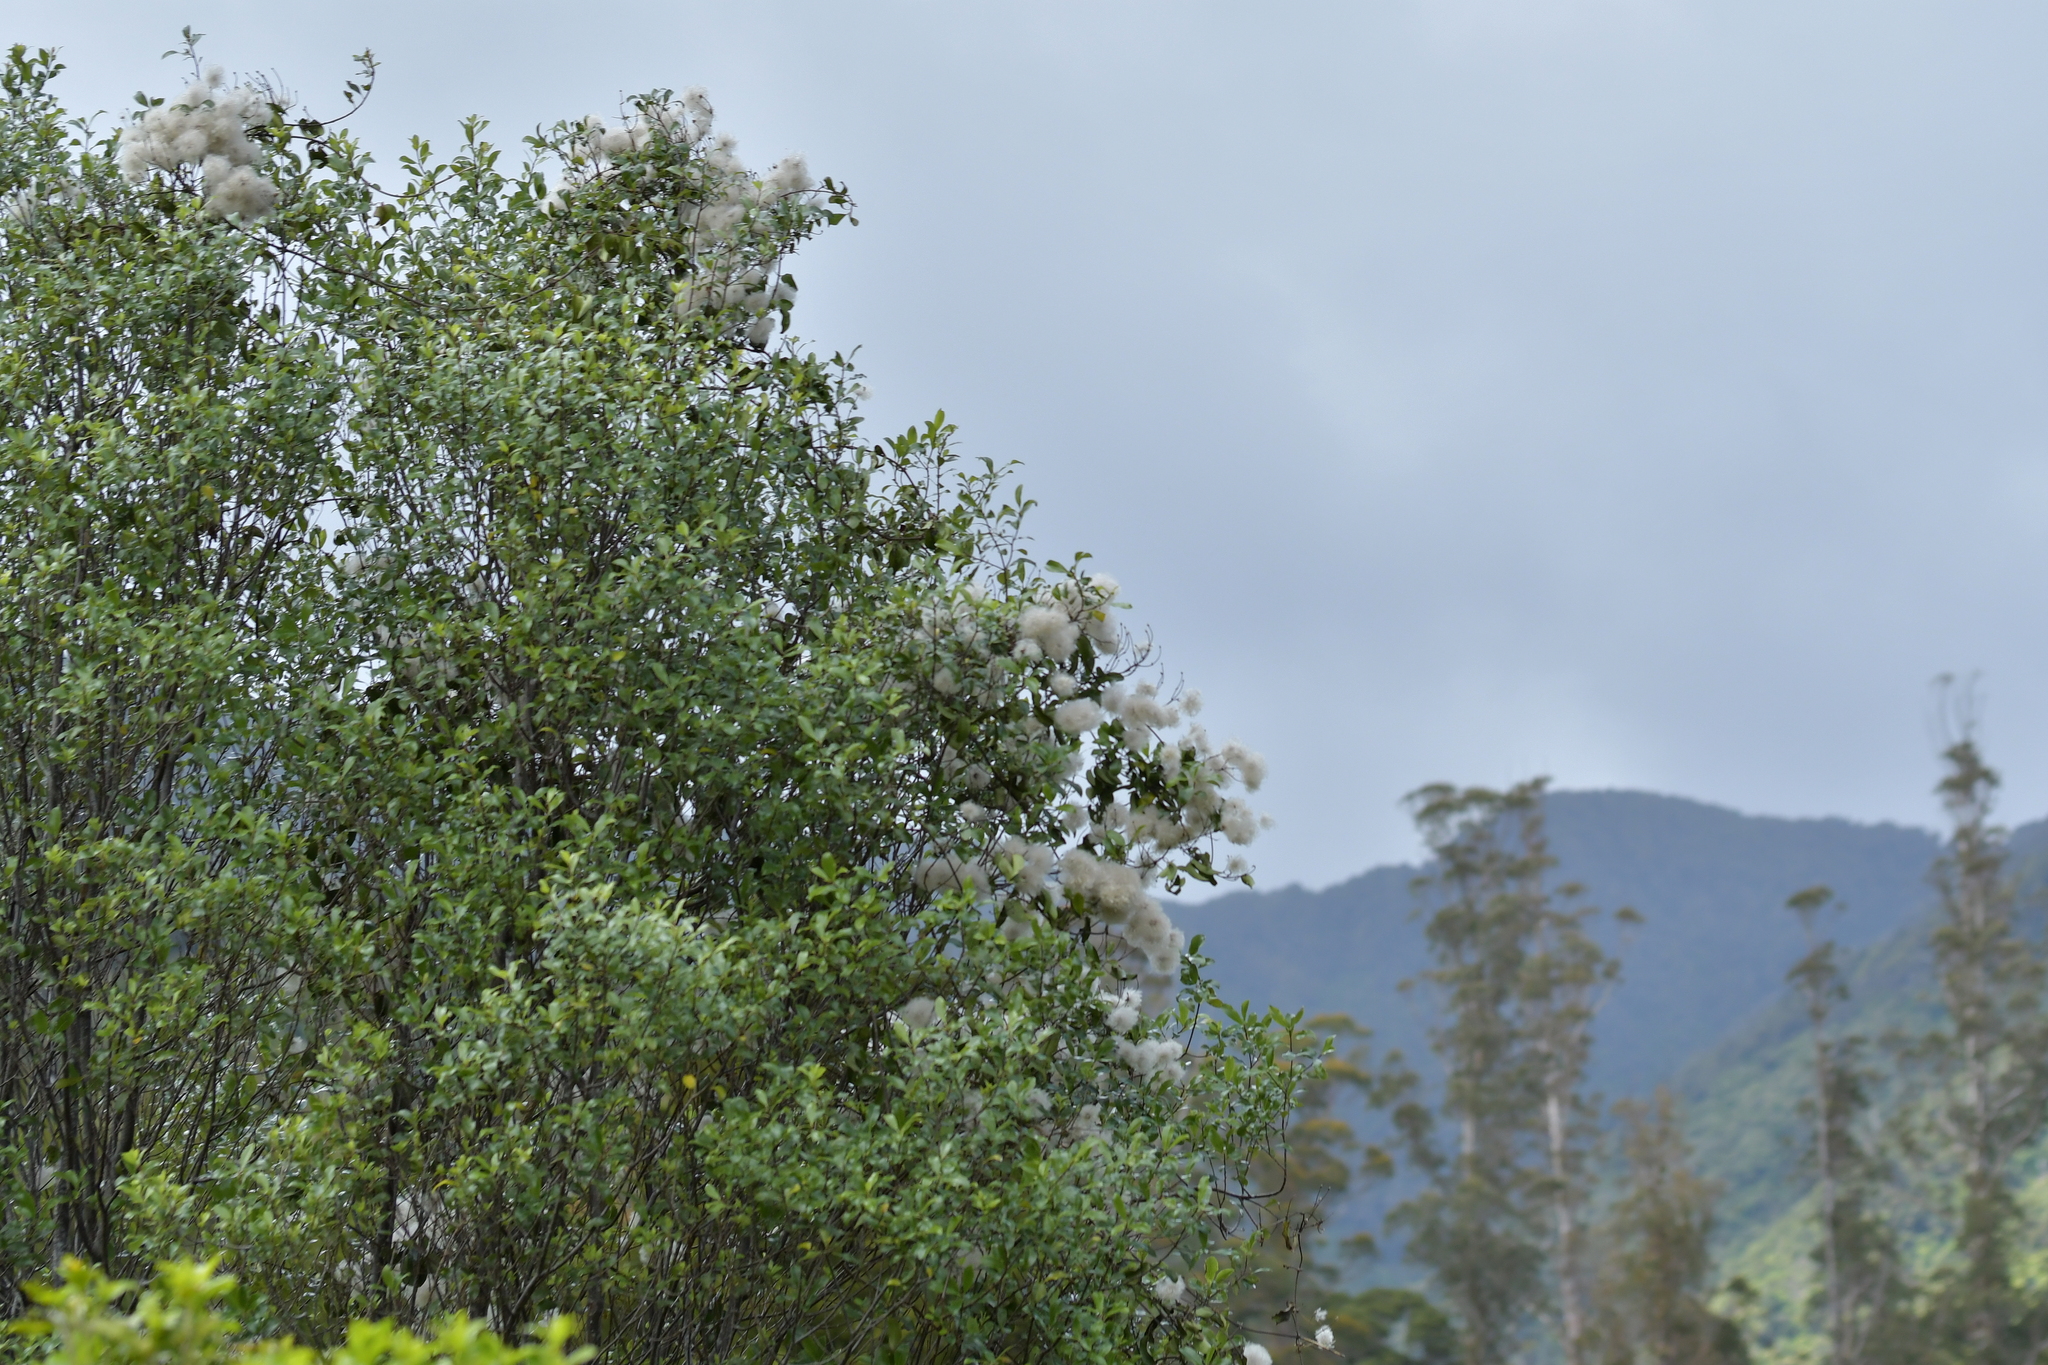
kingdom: Plantae
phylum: Tracheophyta
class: Magnoliopsida
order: Ranunculales
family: Ranunculaceae
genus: Clematis
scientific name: Clematis paniculata
